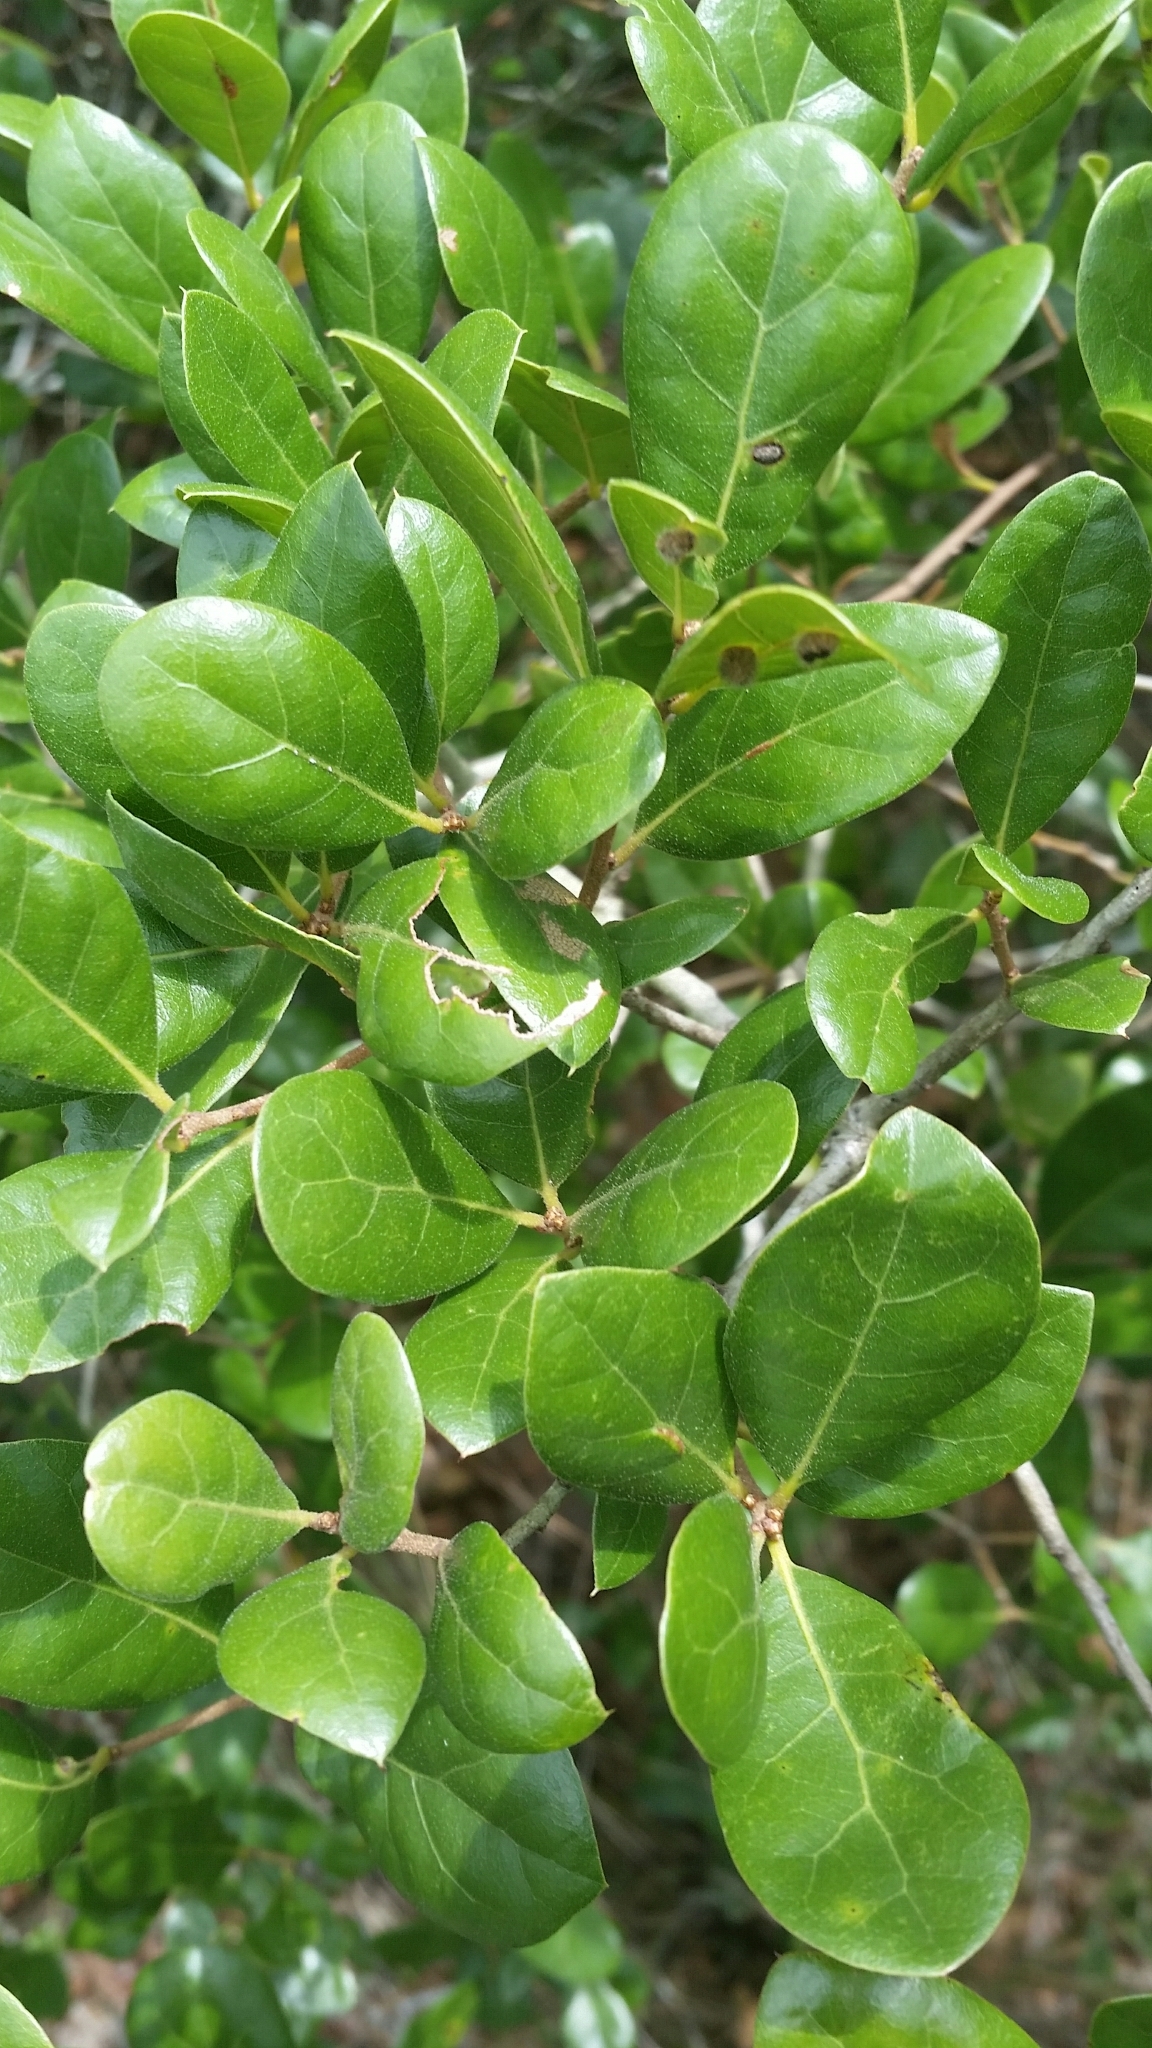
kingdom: Plantae
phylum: Tracheophyta
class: Magnoliopsida
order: Fagales
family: Fagaceae
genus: Quercus
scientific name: Quercus myrtifolia
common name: Myrtle oak
